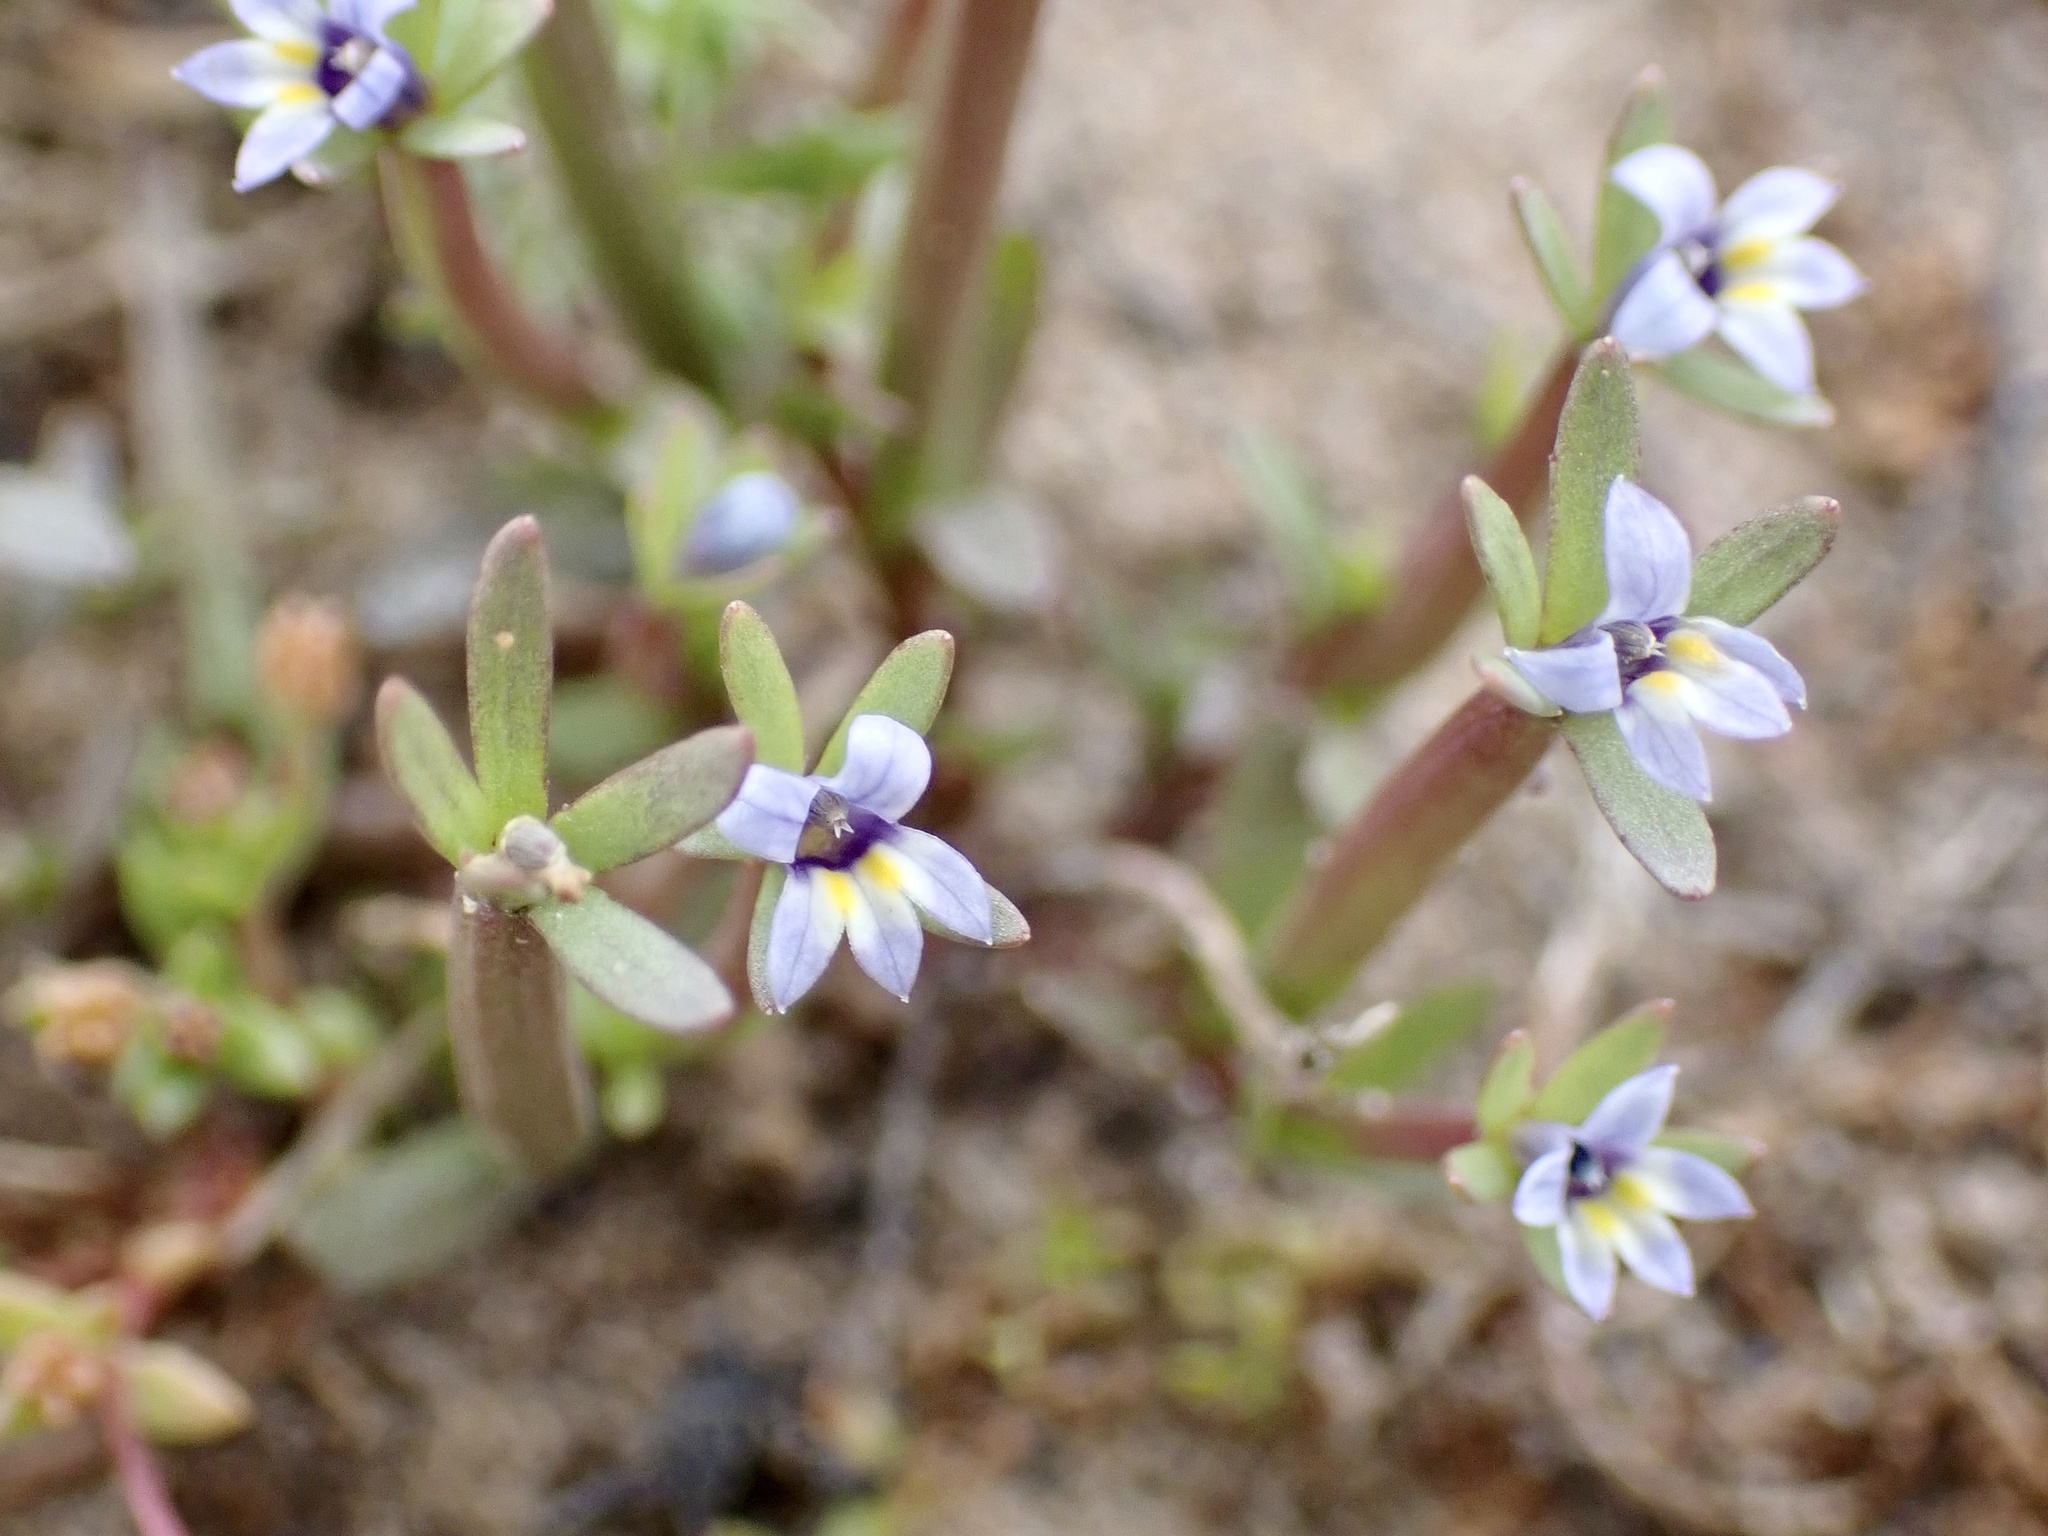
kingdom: Plantae
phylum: Tracheophyta
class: Magnoliopsida
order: Asterales
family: Campanulaceae
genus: Downingia
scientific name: Downingia pusilla
